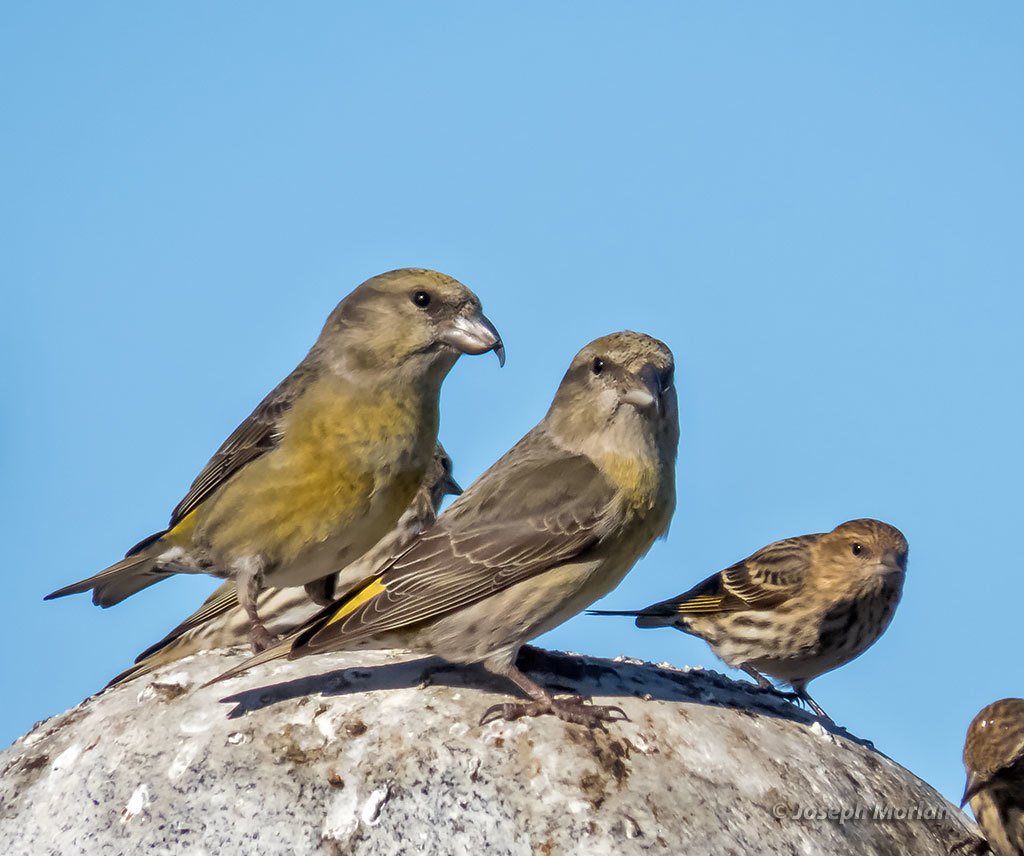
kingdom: Animalia
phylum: Chordata
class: Aves
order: Passeriformes
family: Fringillidae
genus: Loxia
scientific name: Loxia curvirostra
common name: Red crossbill
